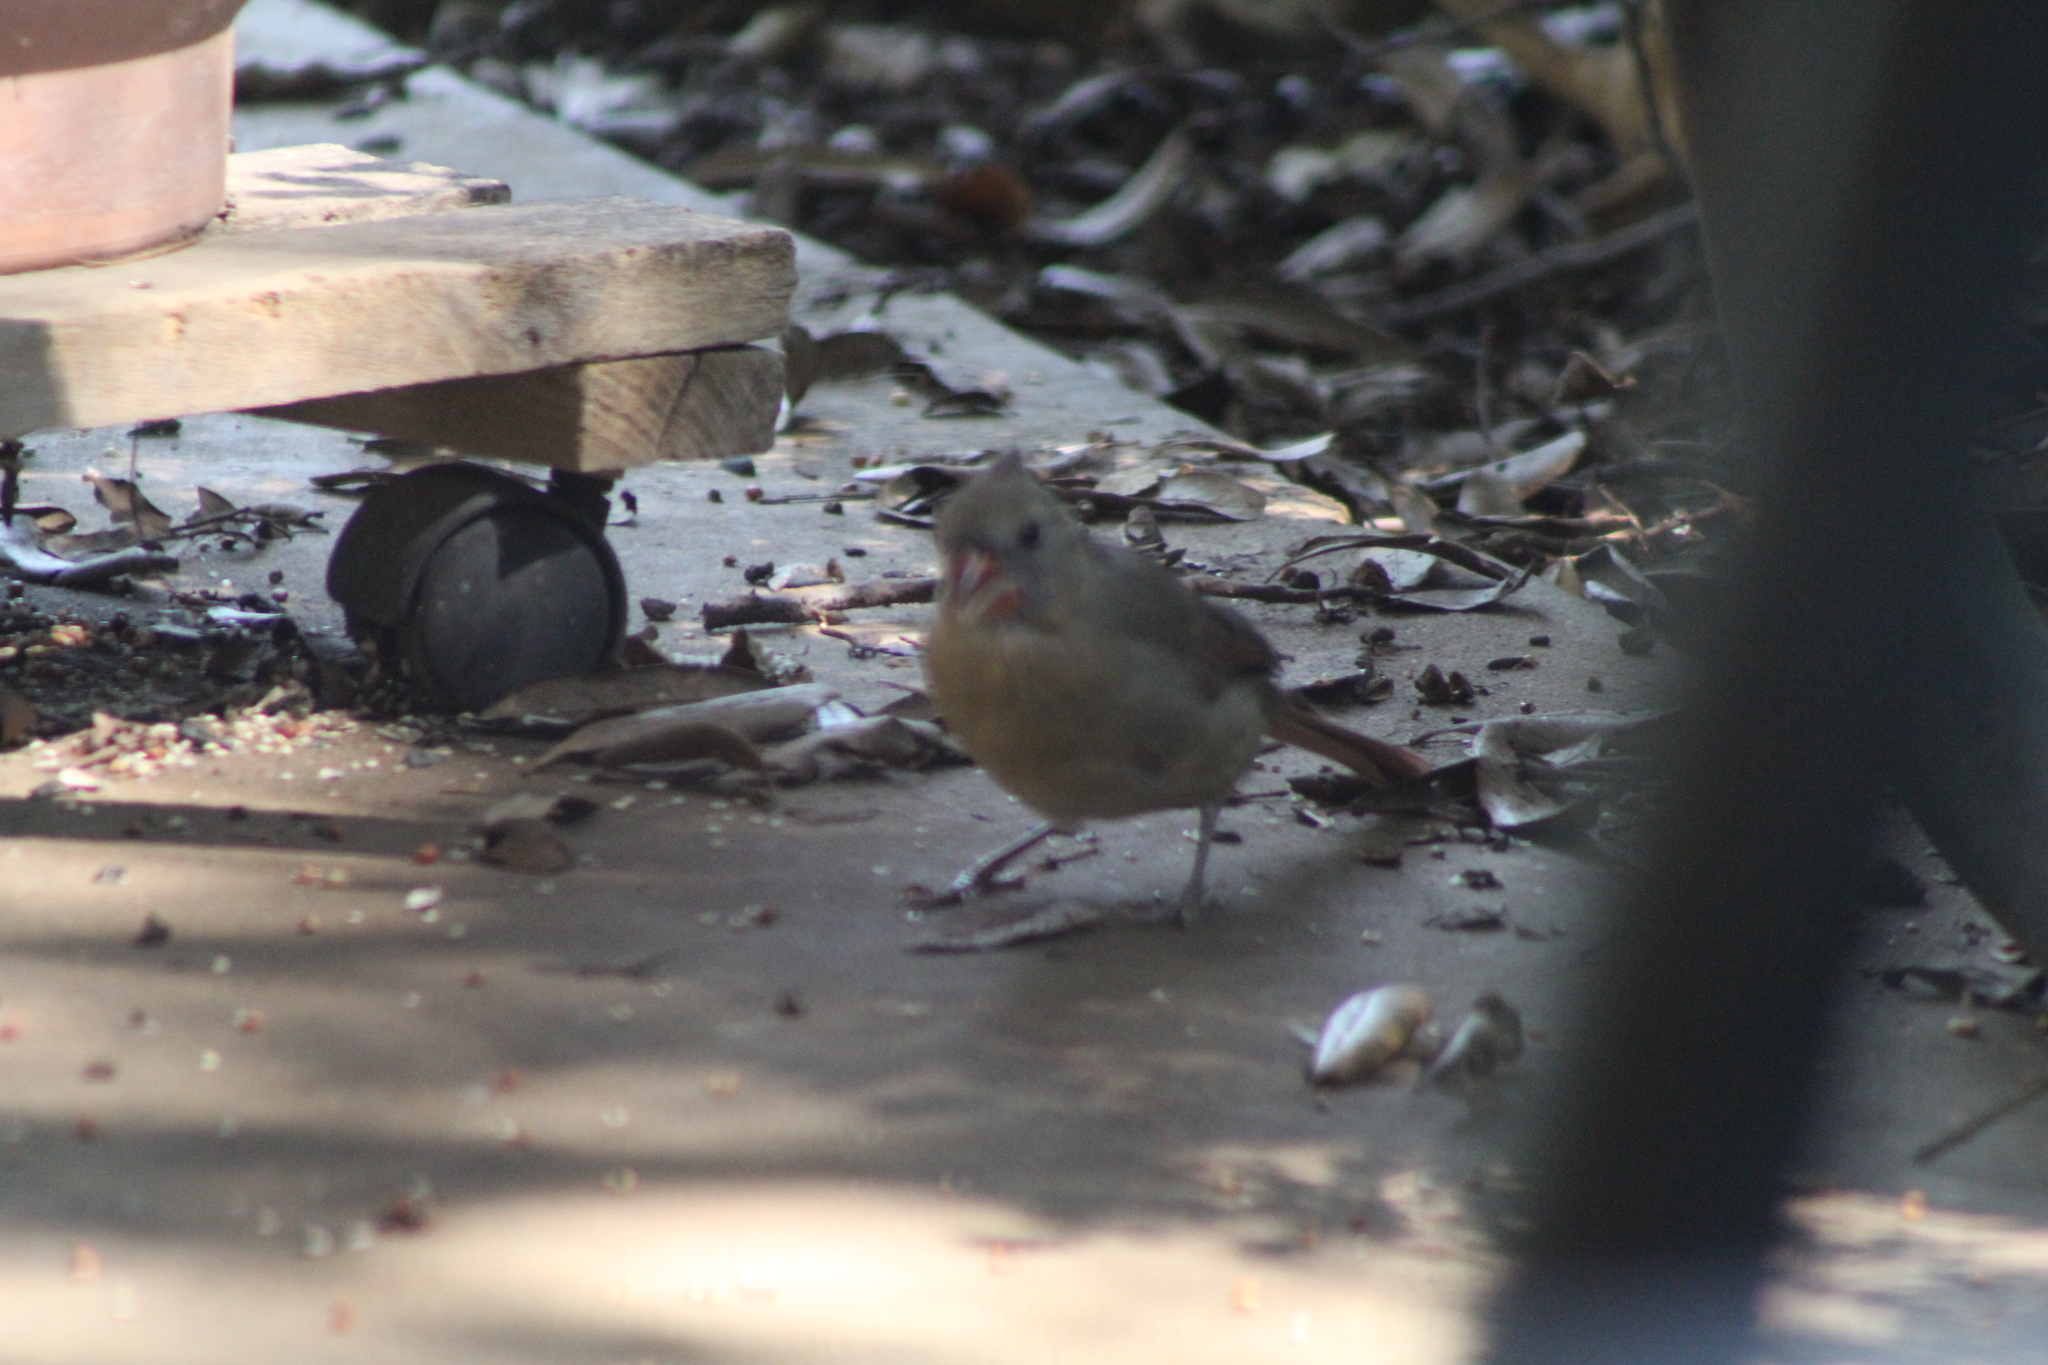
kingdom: Animalia
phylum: Chordata
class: Aves
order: Passeriformes
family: Cardinalidae
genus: Cardinalis
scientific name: Cardinalis cardinalis
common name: Northern cardinal
